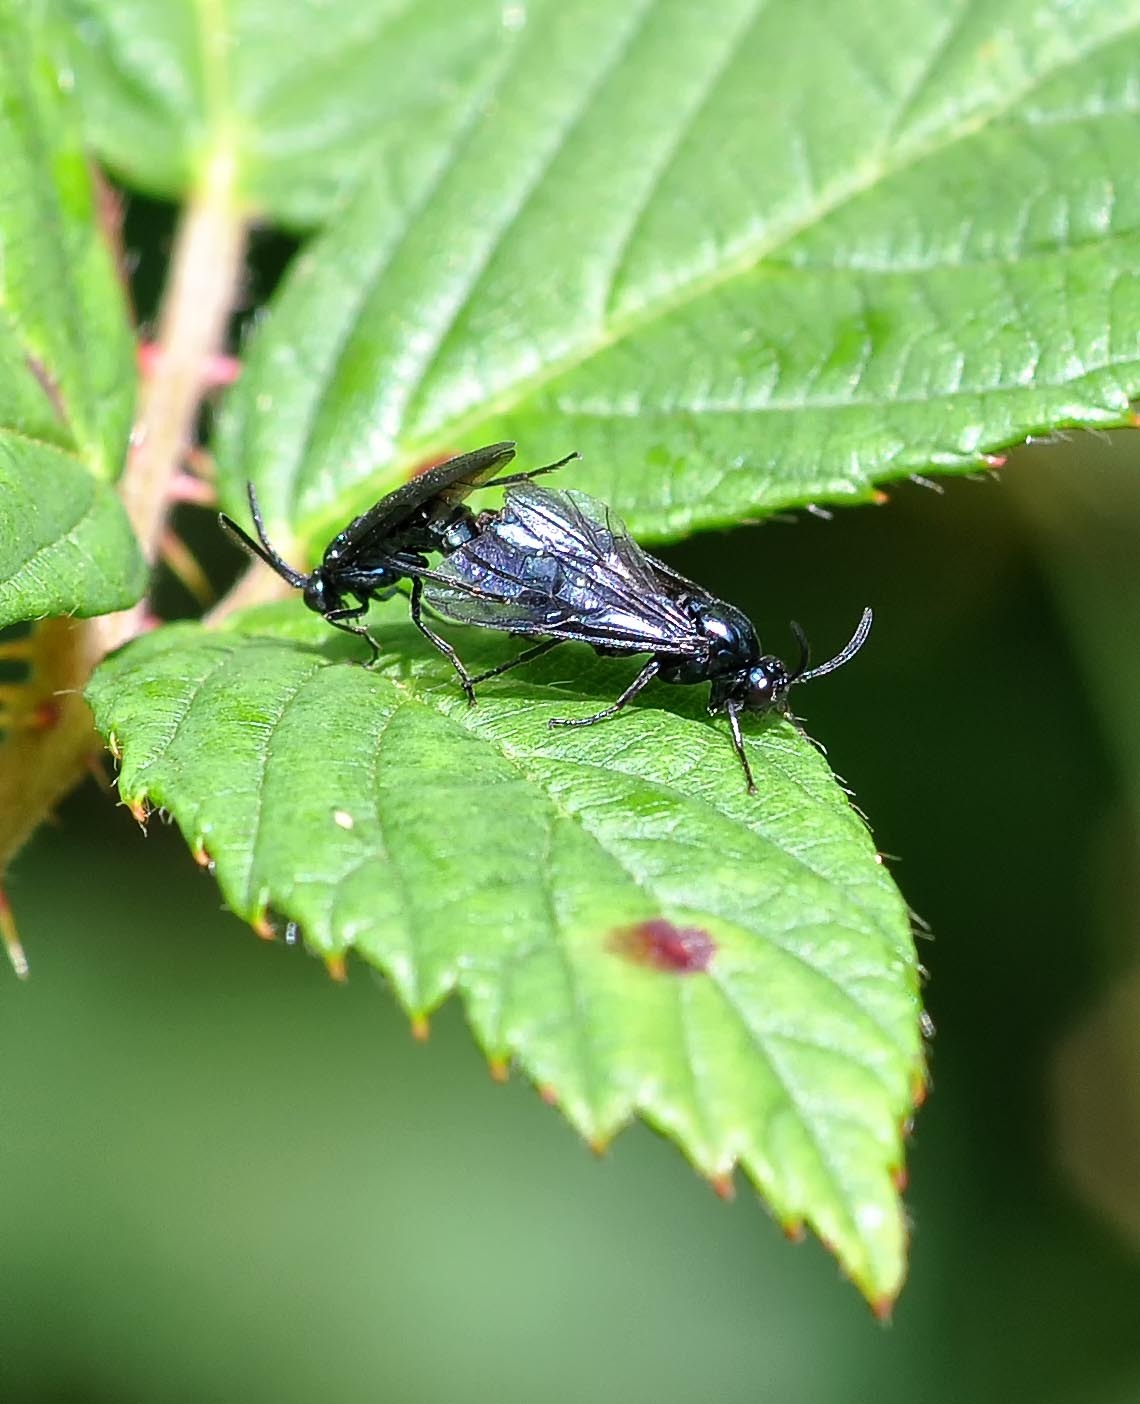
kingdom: Animalia
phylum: Arthropoda
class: Insecta
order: Hymenoptera
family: Argidae
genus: Arge
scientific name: Arge gracilicornis
